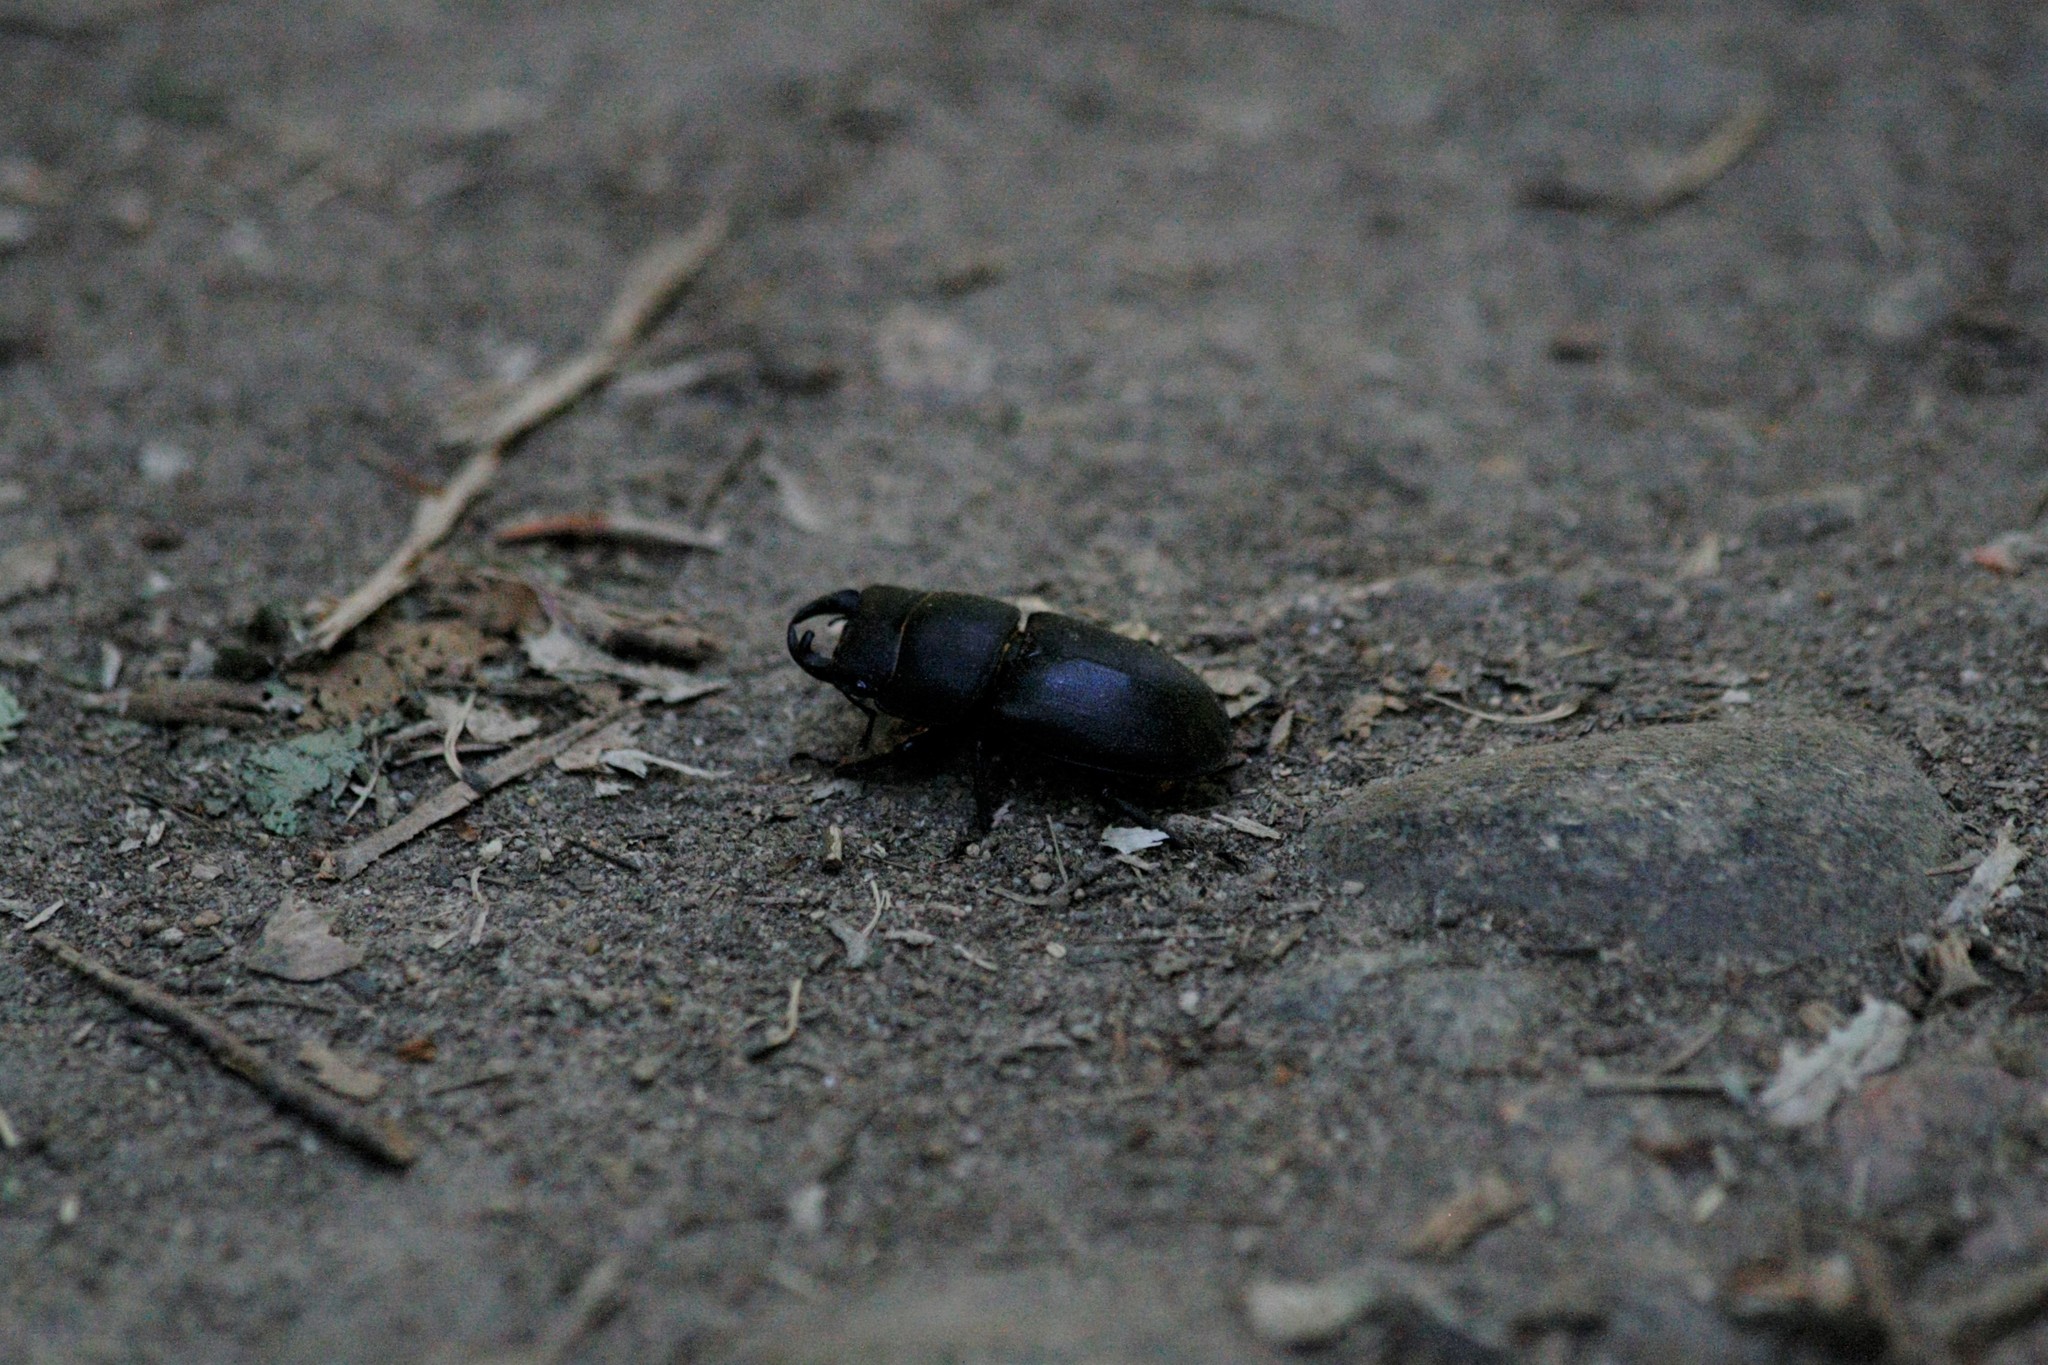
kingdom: Animalia
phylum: Arthropoda
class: Insecta
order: Coleoptera
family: Lucanidae
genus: Dorcus
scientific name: Dorcus parallelipipedus
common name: Lesser stag beetle
